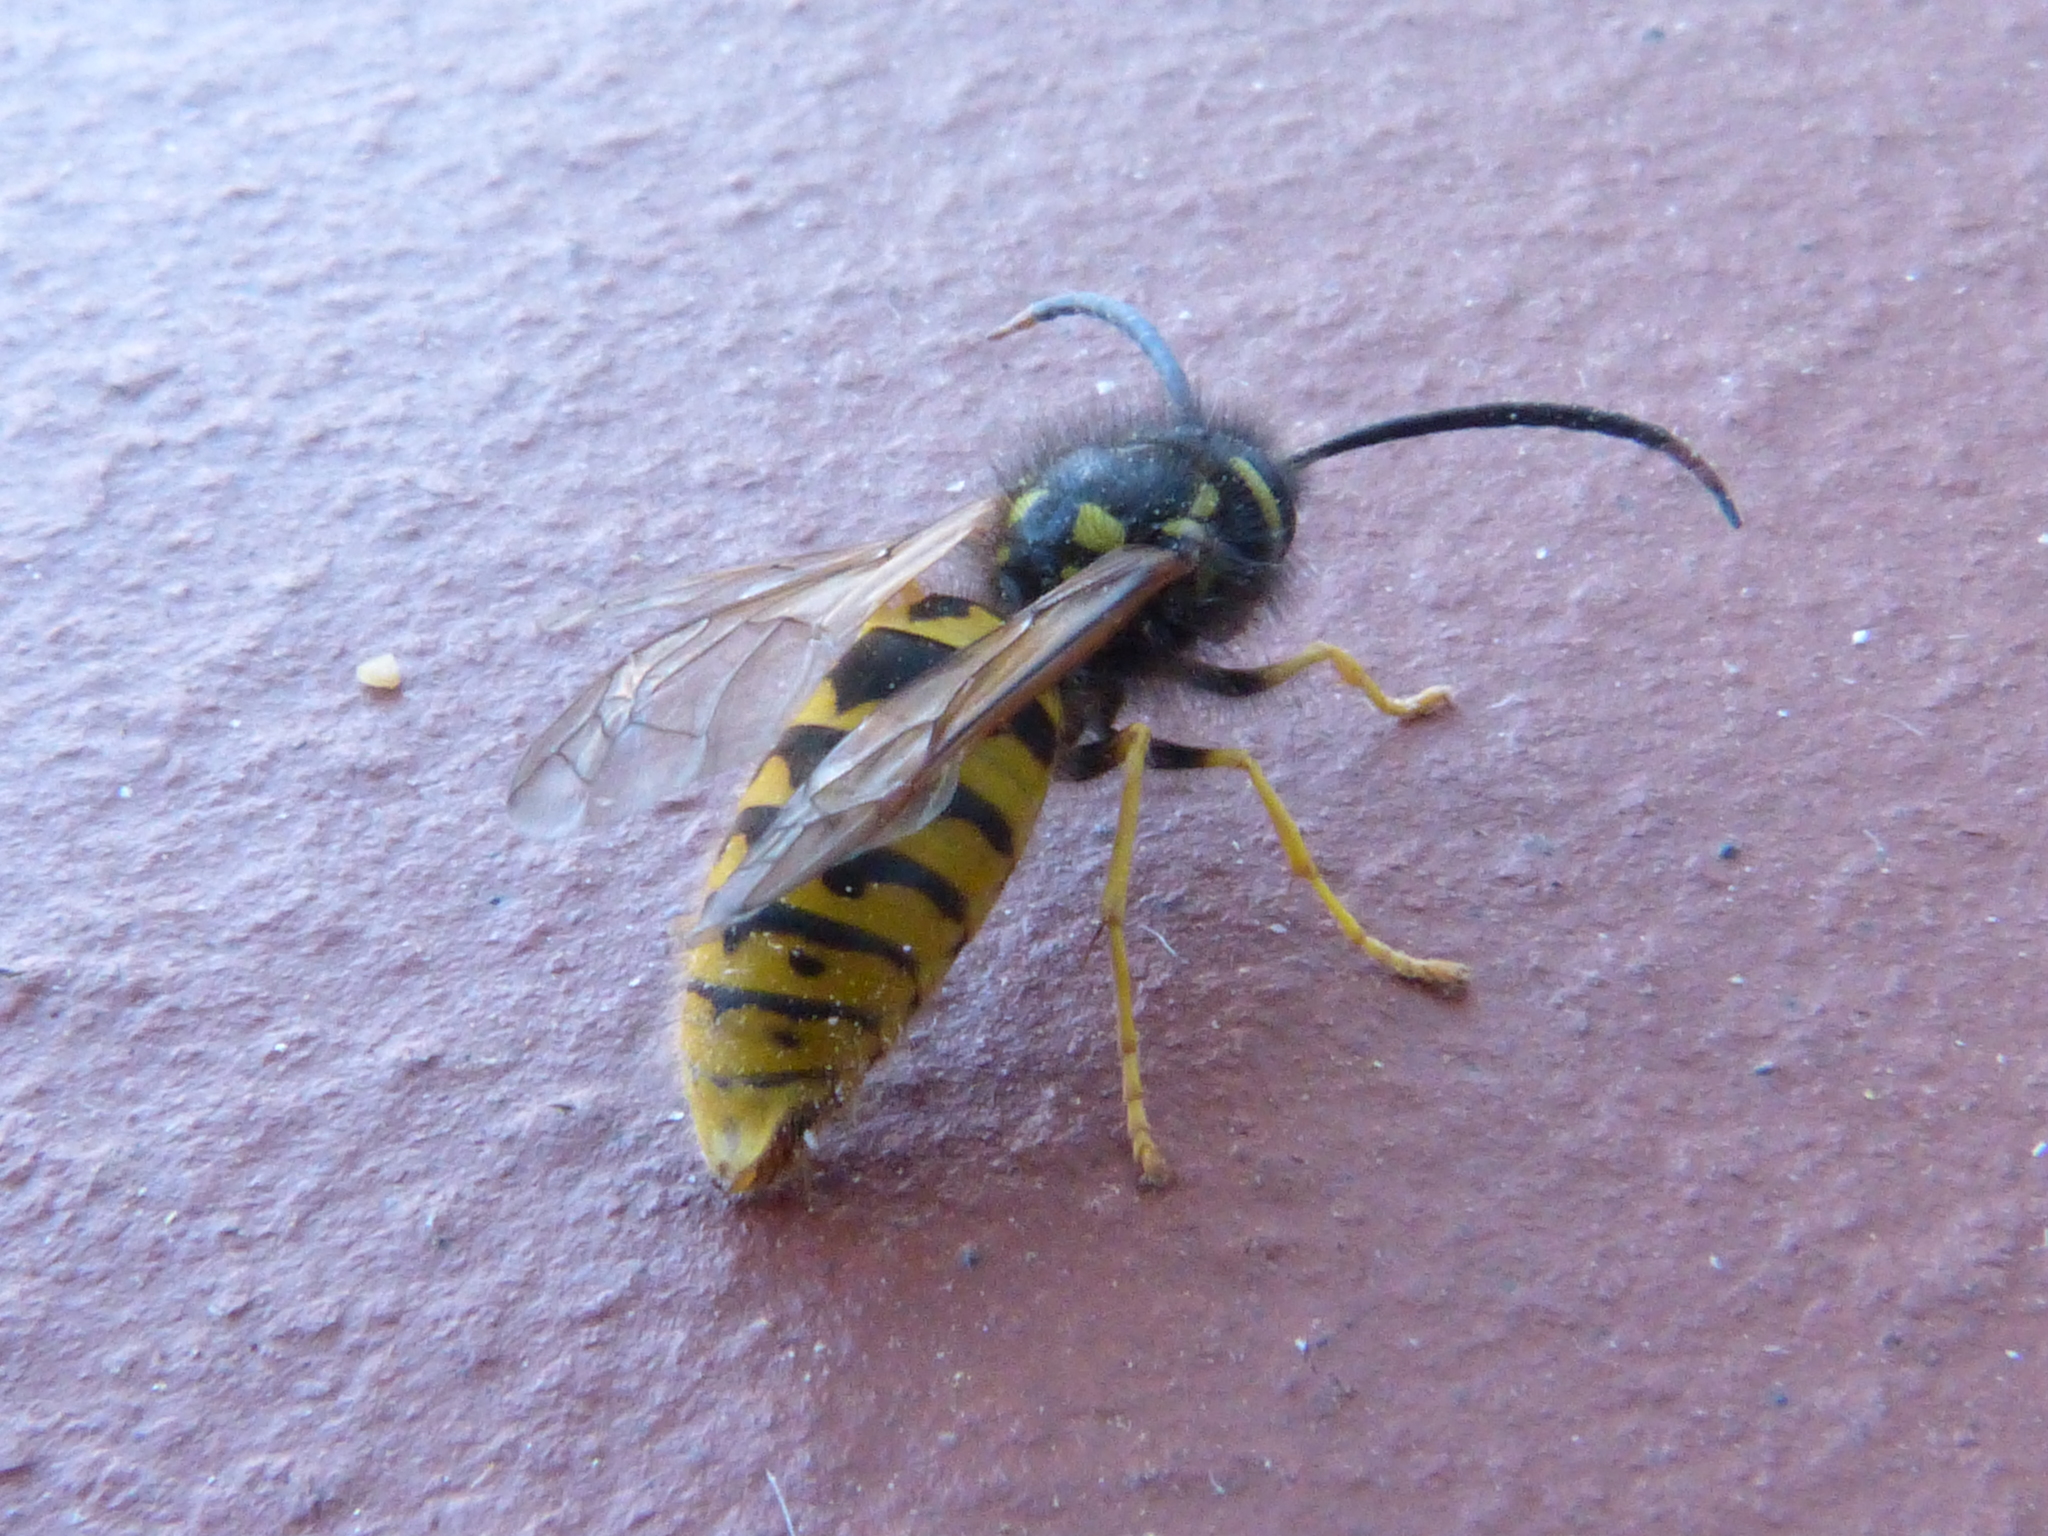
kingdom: Animalia
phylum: Arthropoda
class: Insecta
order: Hymenoptera
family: Vespidae
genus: Vespula
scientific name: Vespula germanica
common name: German wasp
